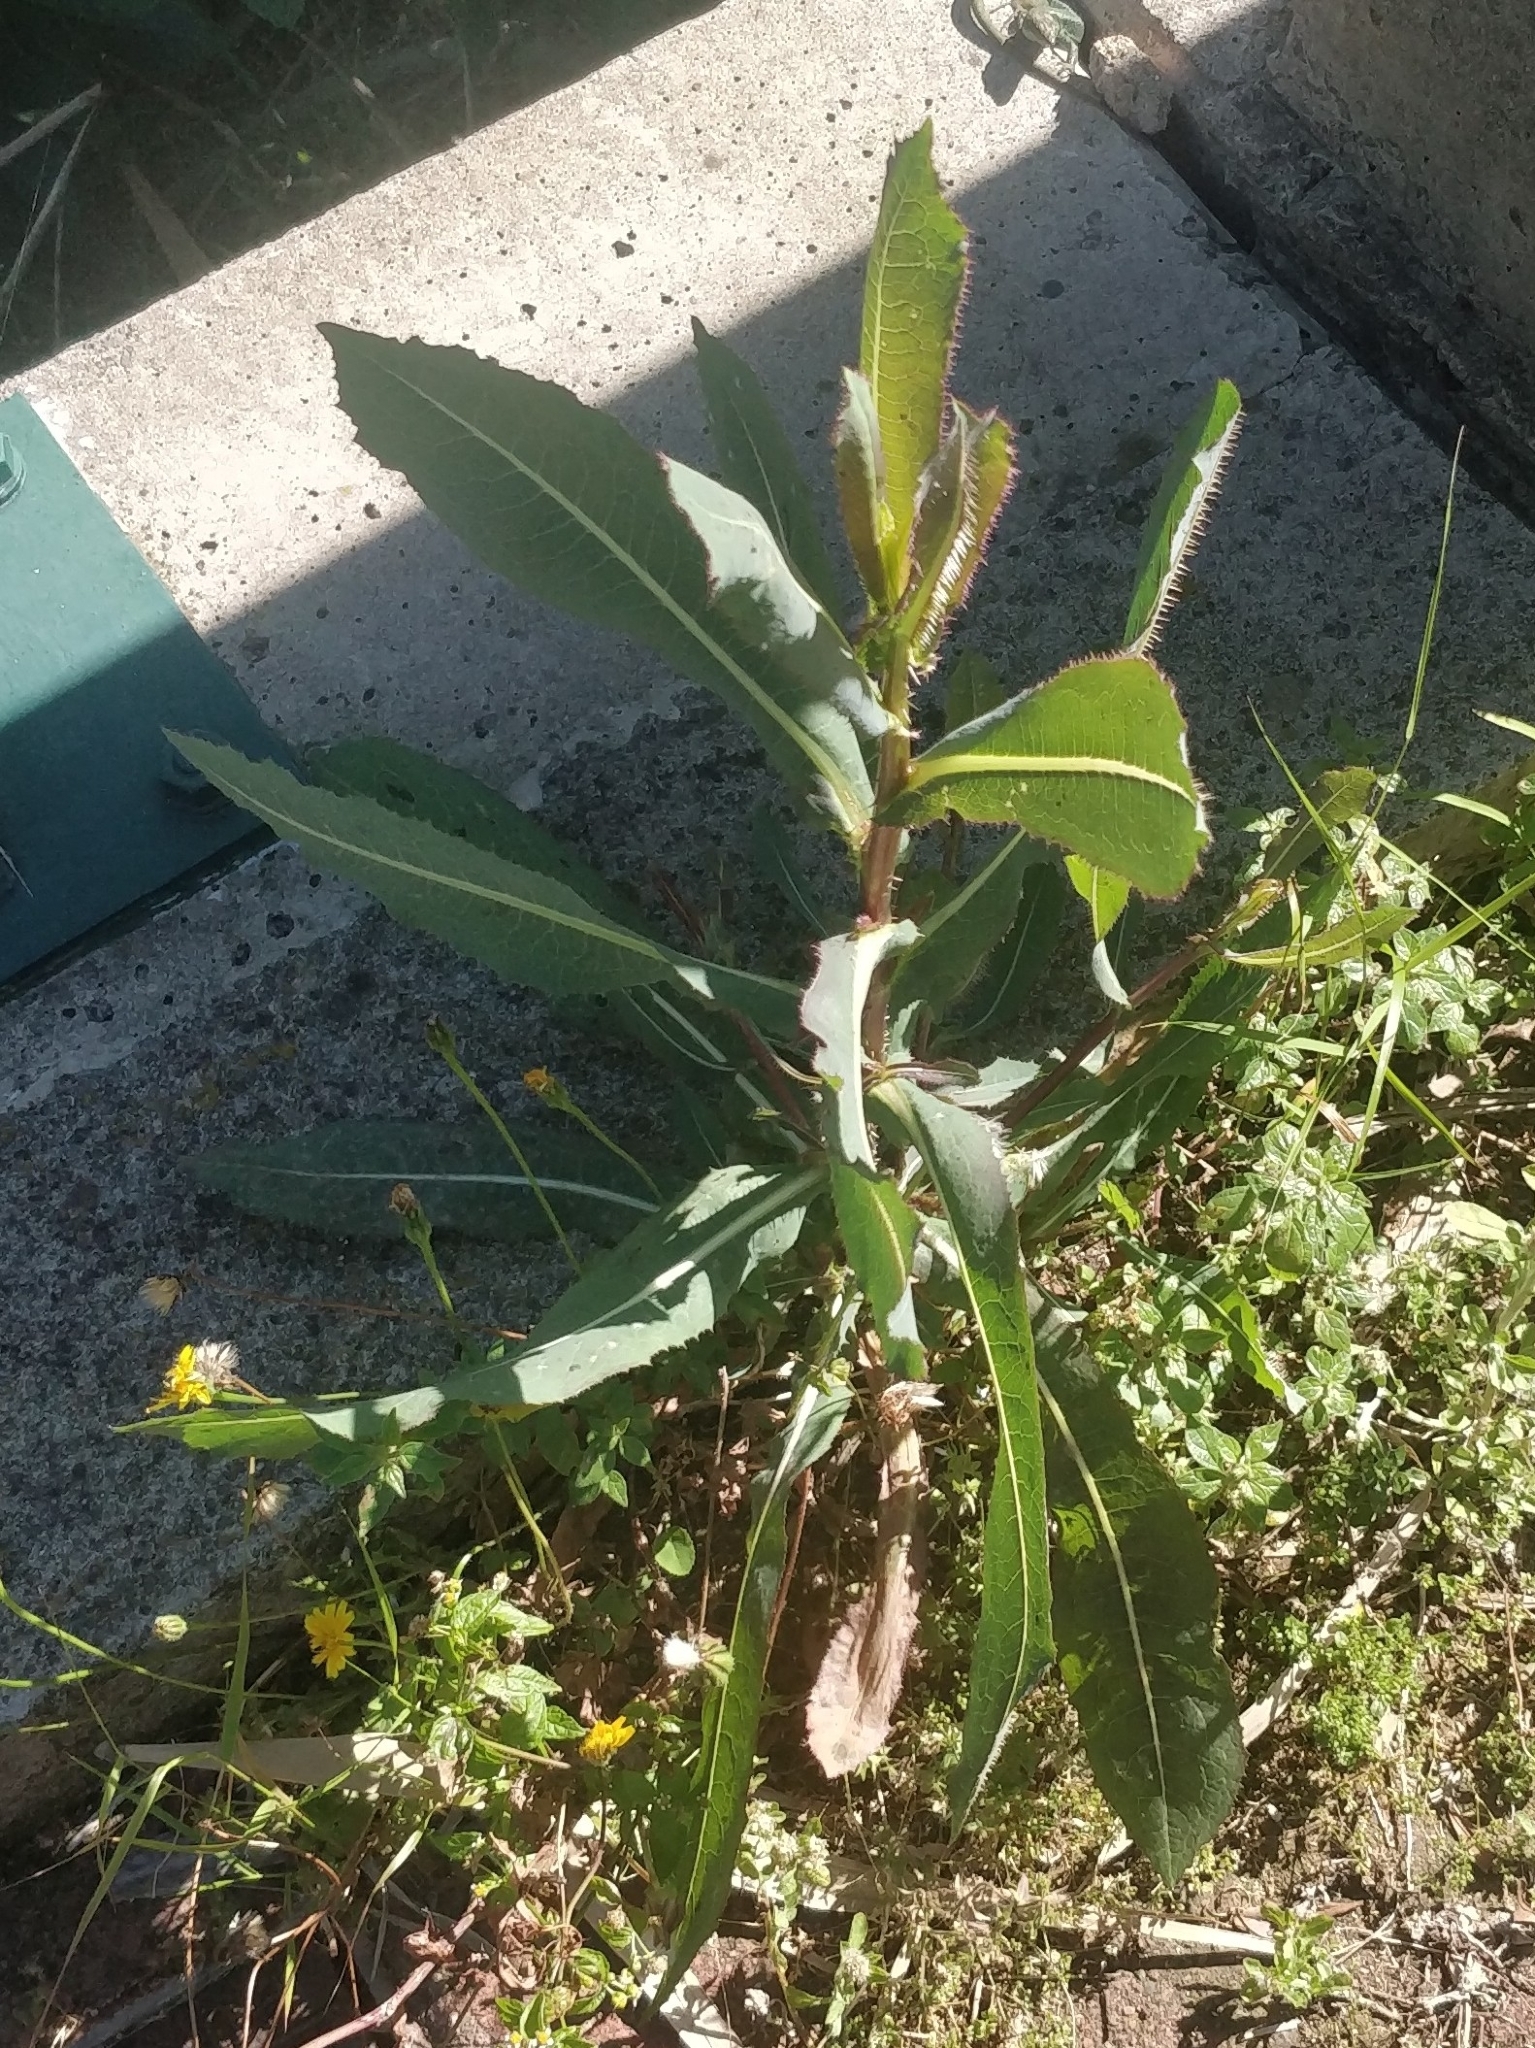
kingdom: Plantae
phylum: Tracheophyta
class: Magnoliopsida
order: Asterales
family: Asteraceae
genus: Lactuca
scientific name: Lactuca serriola
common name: Prickly lettuce
